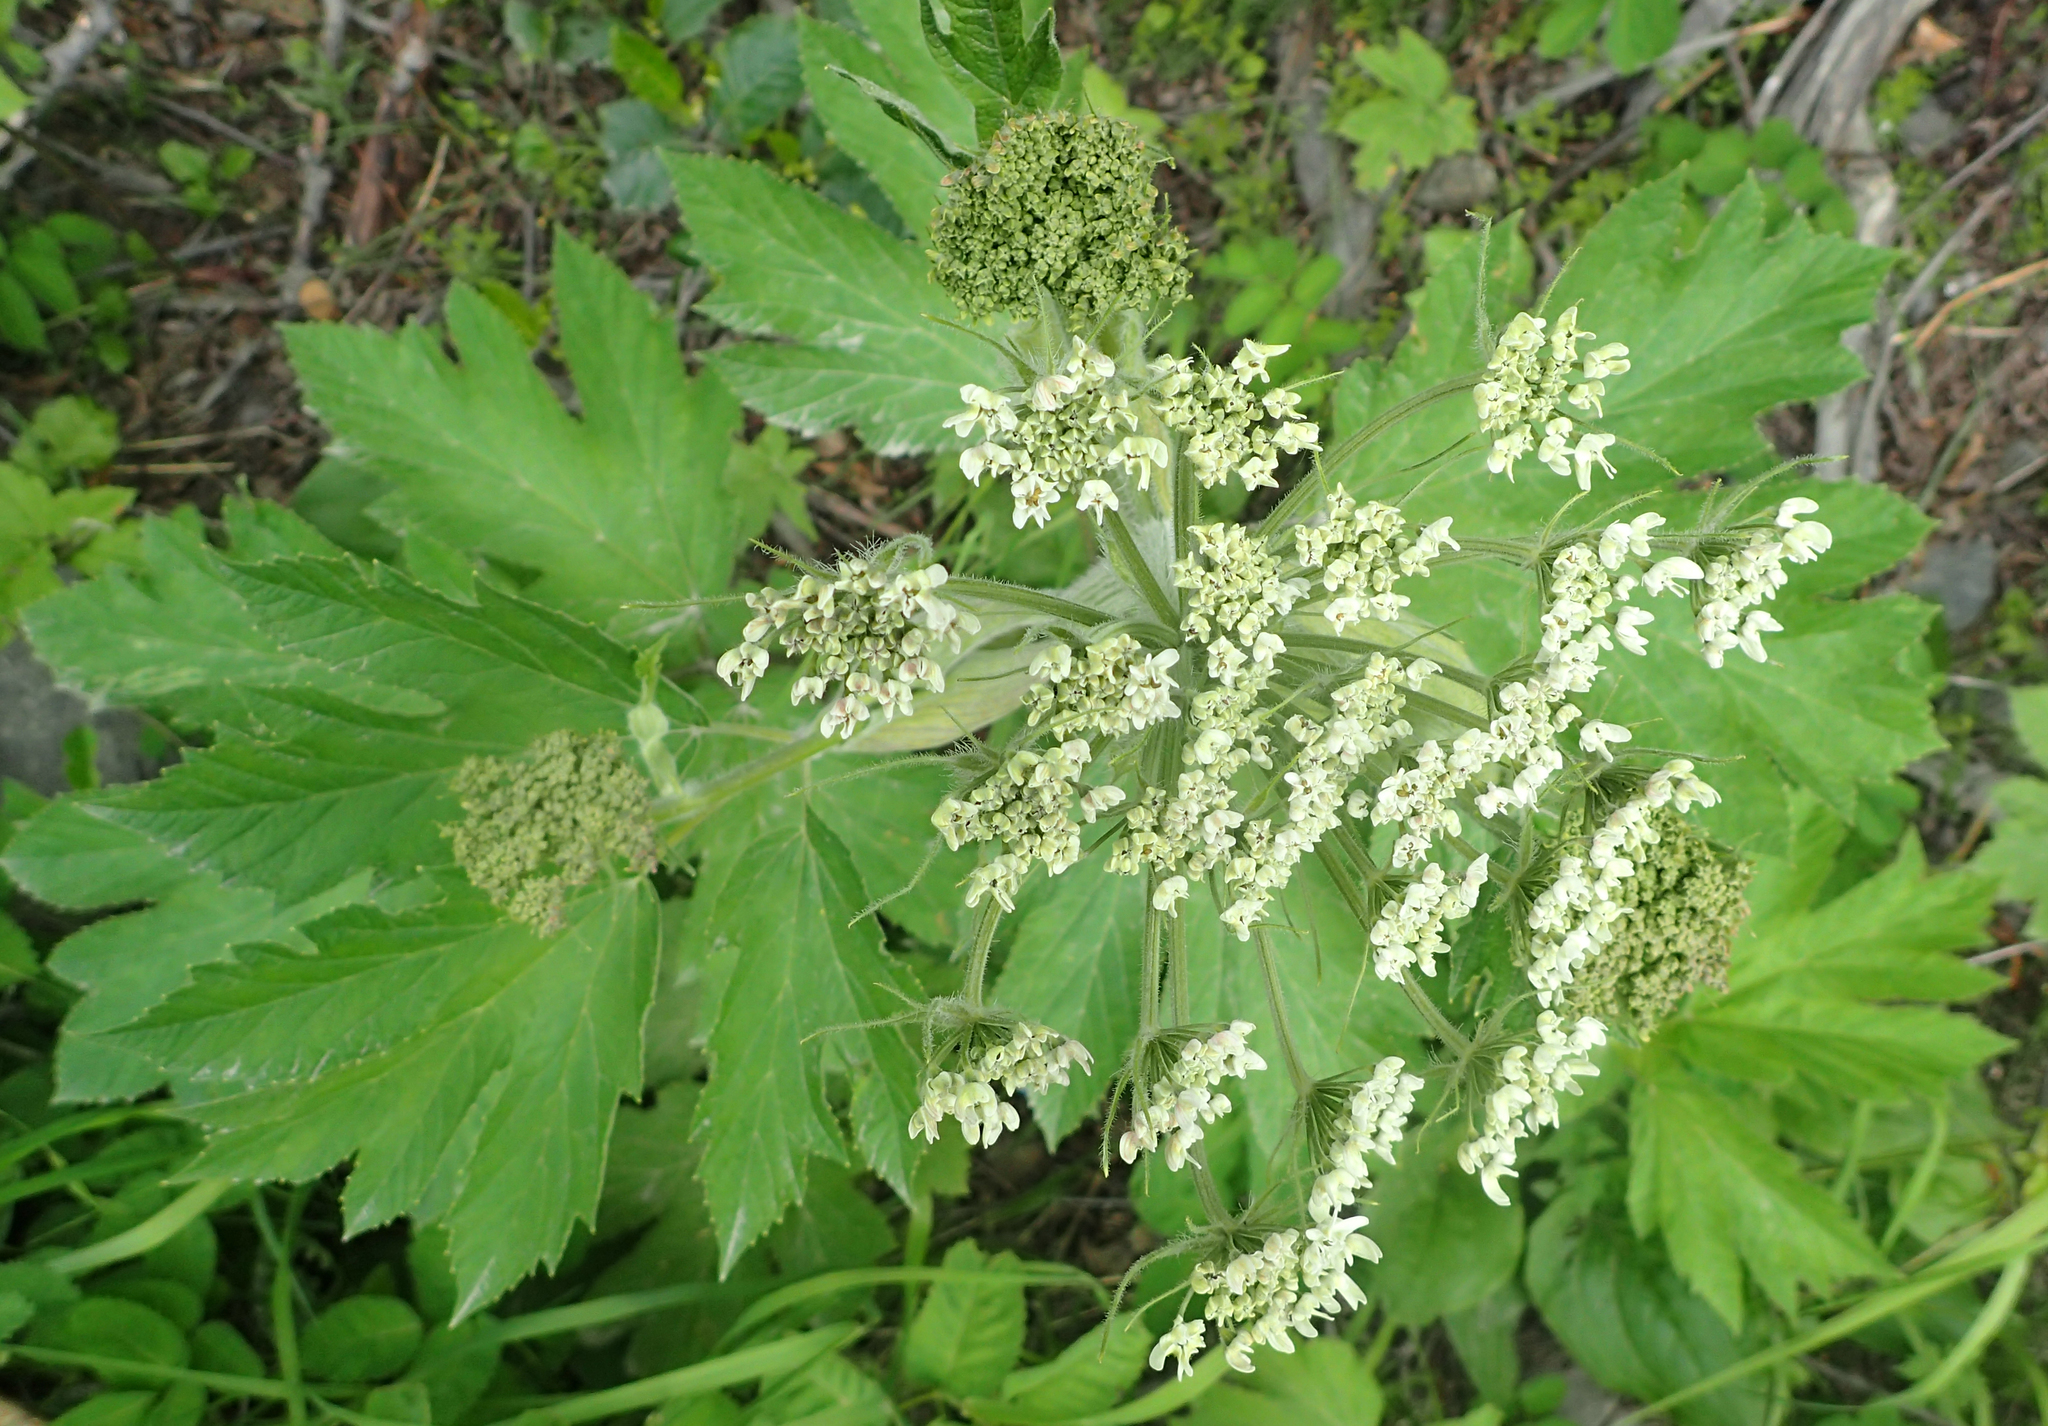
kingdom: Plantae
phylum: Tracheophyta
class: Magnoliopsida
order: Apiales
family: Apiaceae
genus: Heracleum
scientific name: Heracleum maximum
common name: American cow parsnip
